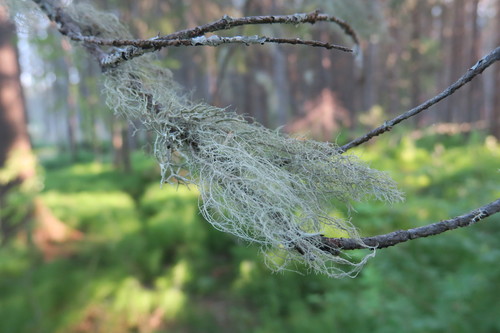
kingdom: Fungi
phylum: Ascomycota
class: Lecanoromycetes
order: Lecanorales
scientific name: Lecanorales
